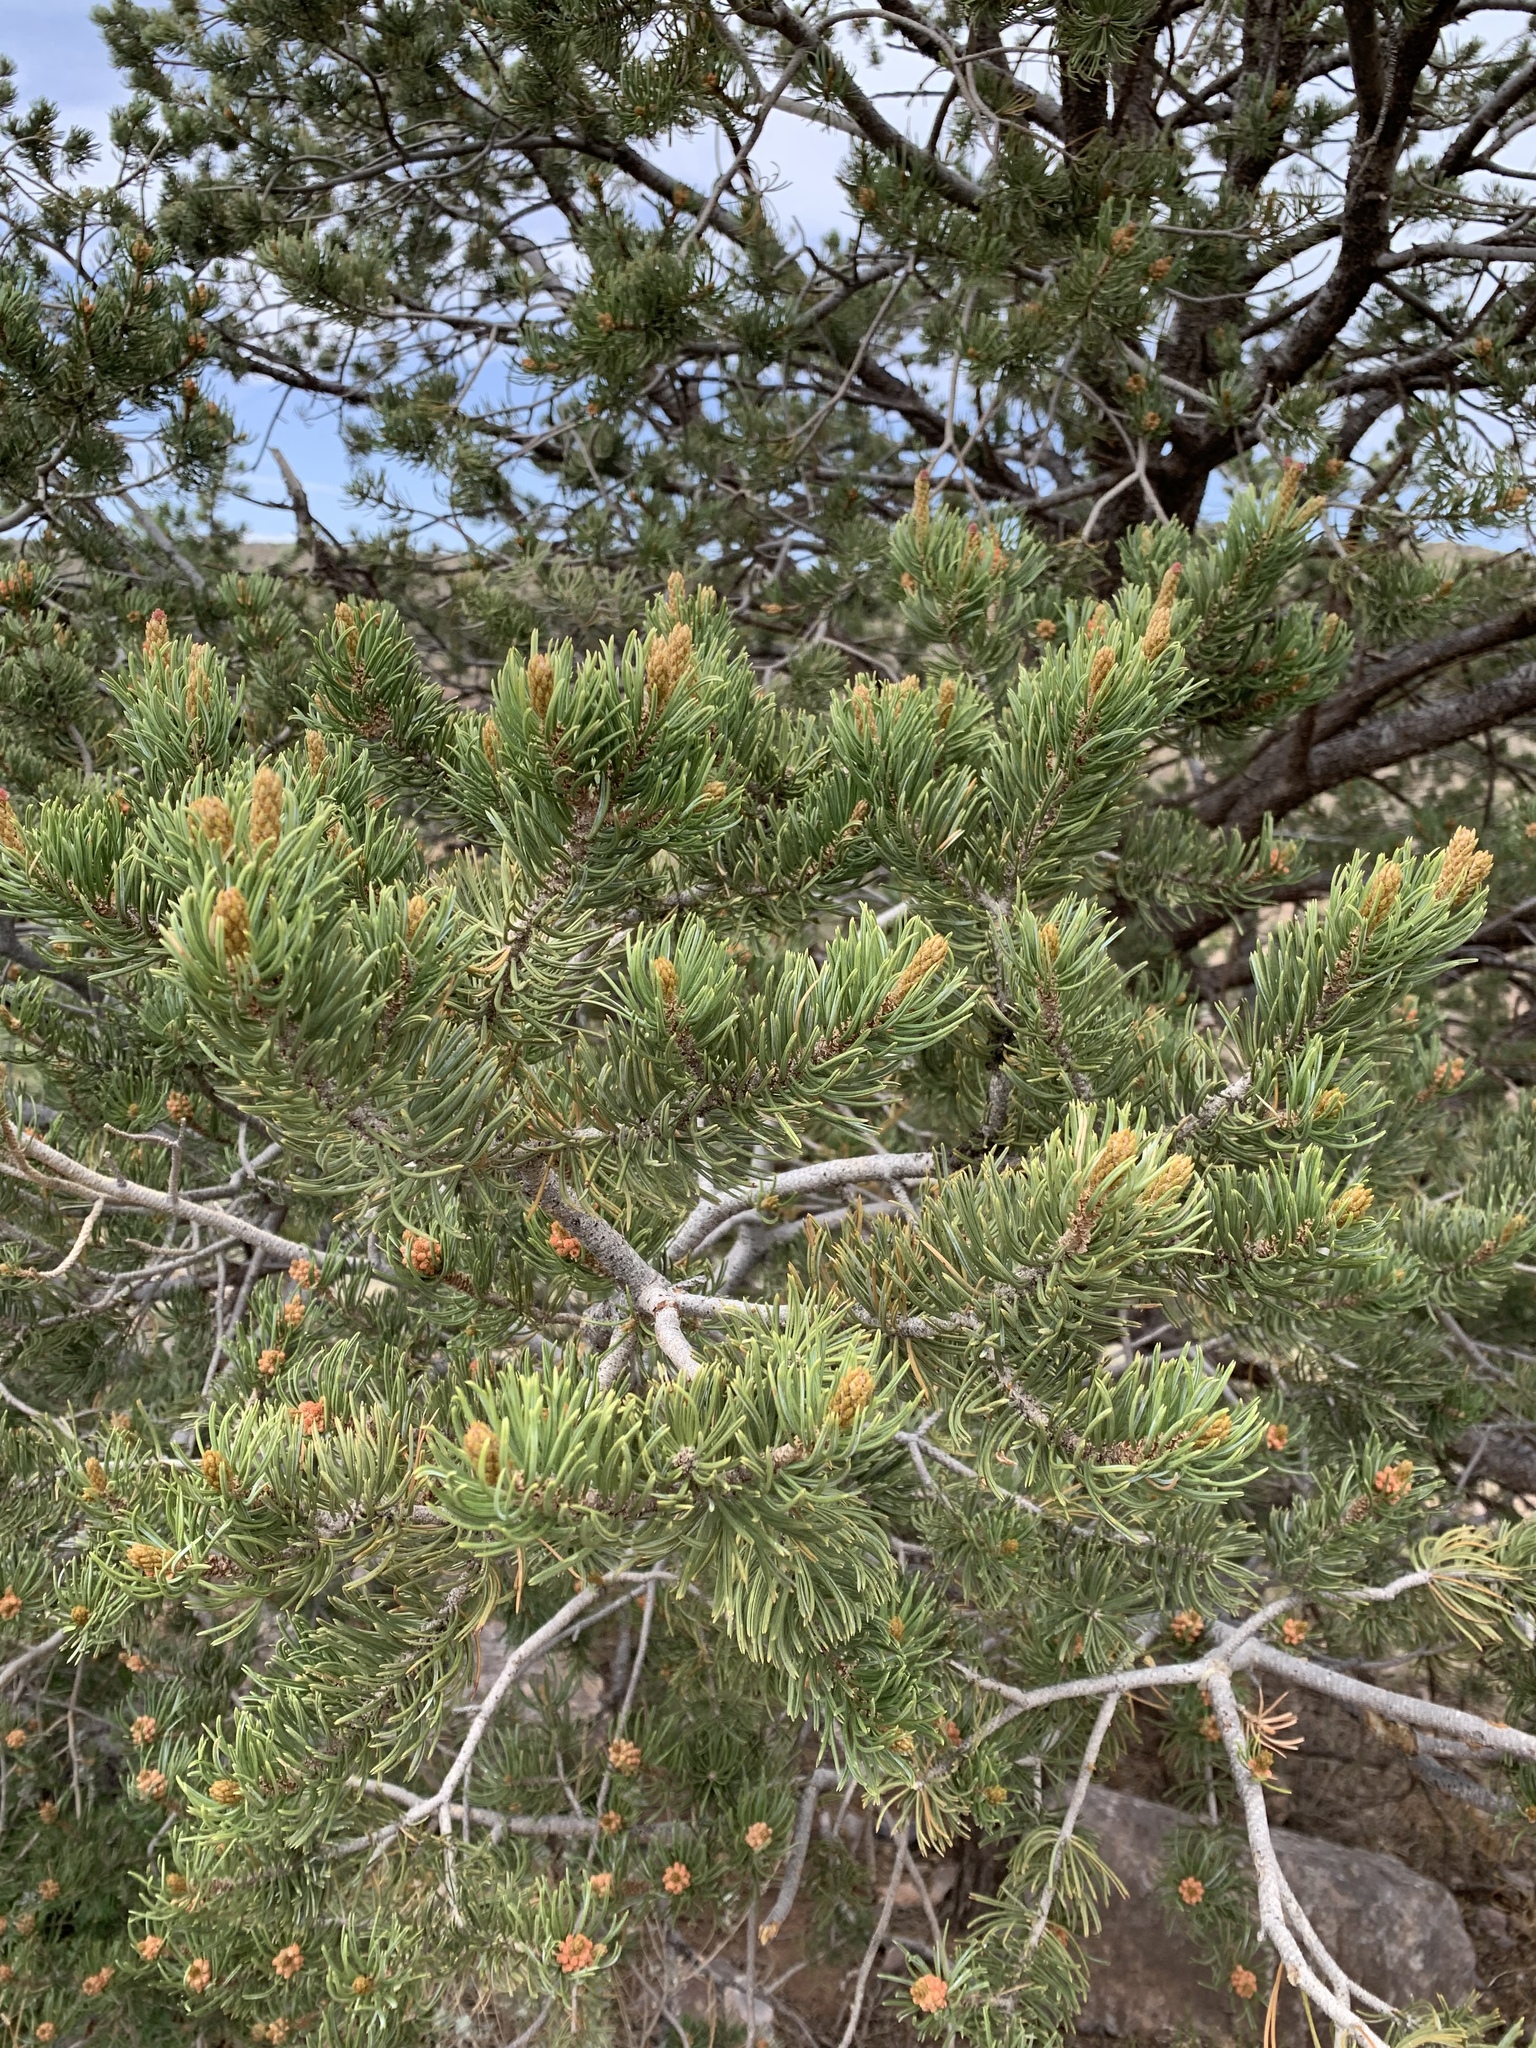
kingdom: Plantae
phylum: Tracheophyta
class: Pinopsida
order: Pinales
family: Pinaceae
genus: Pinus
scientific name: Pinus edulis
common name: Colorado pinyon
